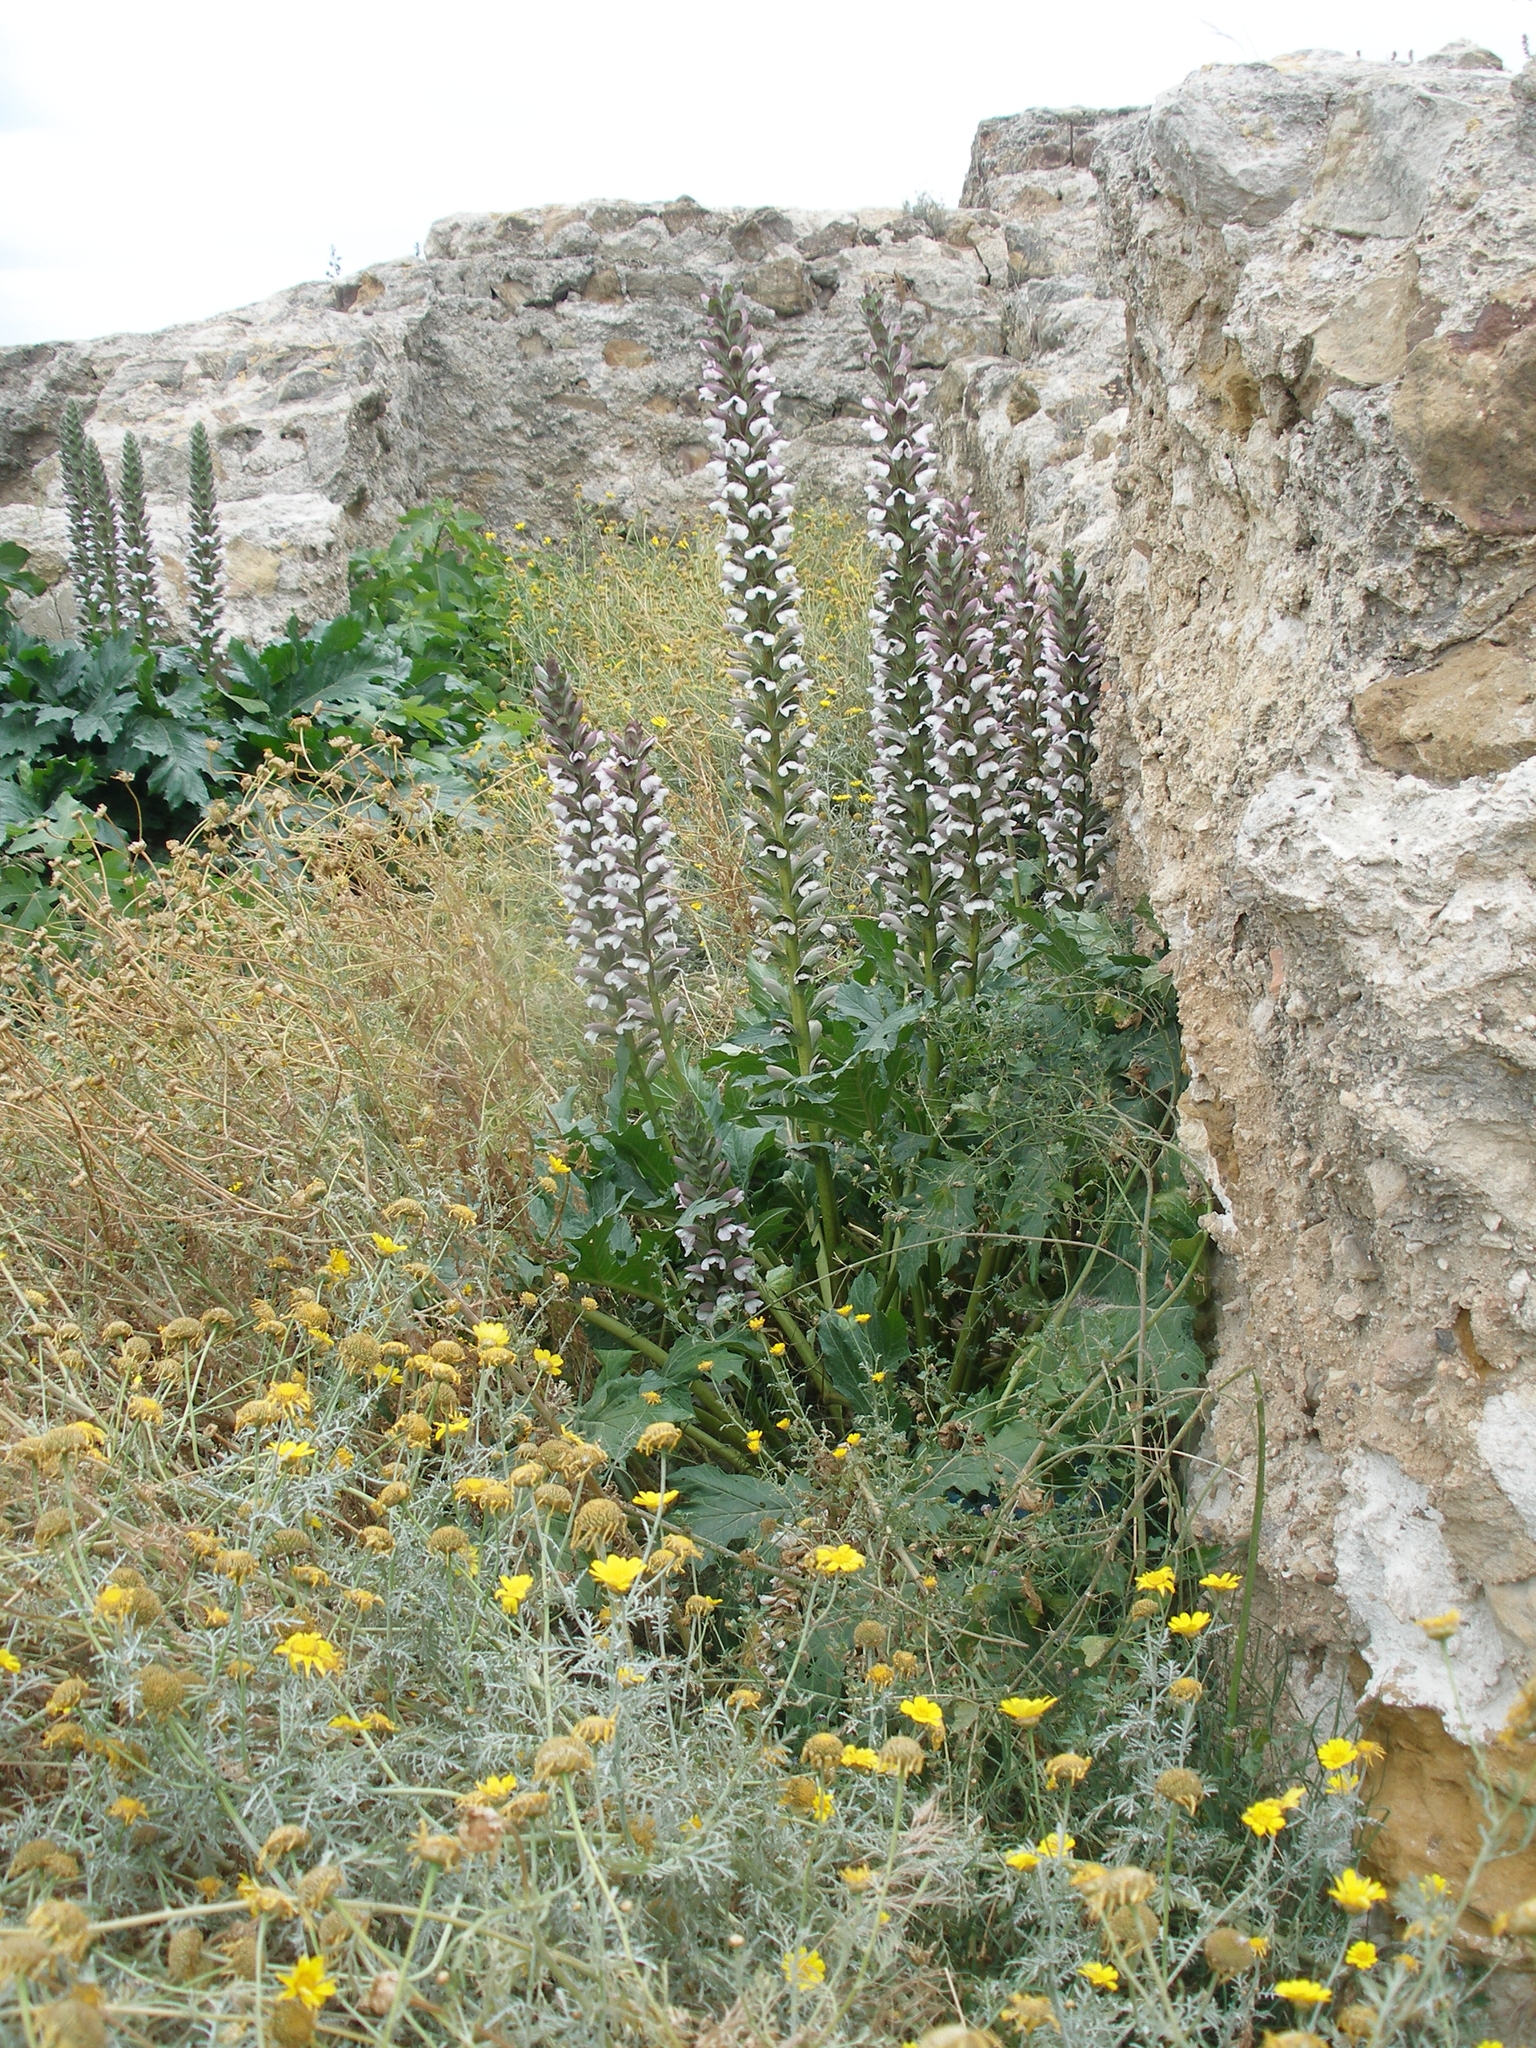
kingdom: Plantae
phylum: Tracheophyta
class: Magnoliopsida
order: Lamiales
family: Acanthaceae
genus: Acanthus
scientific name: Acanthus mollis
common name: Bear's-breech
